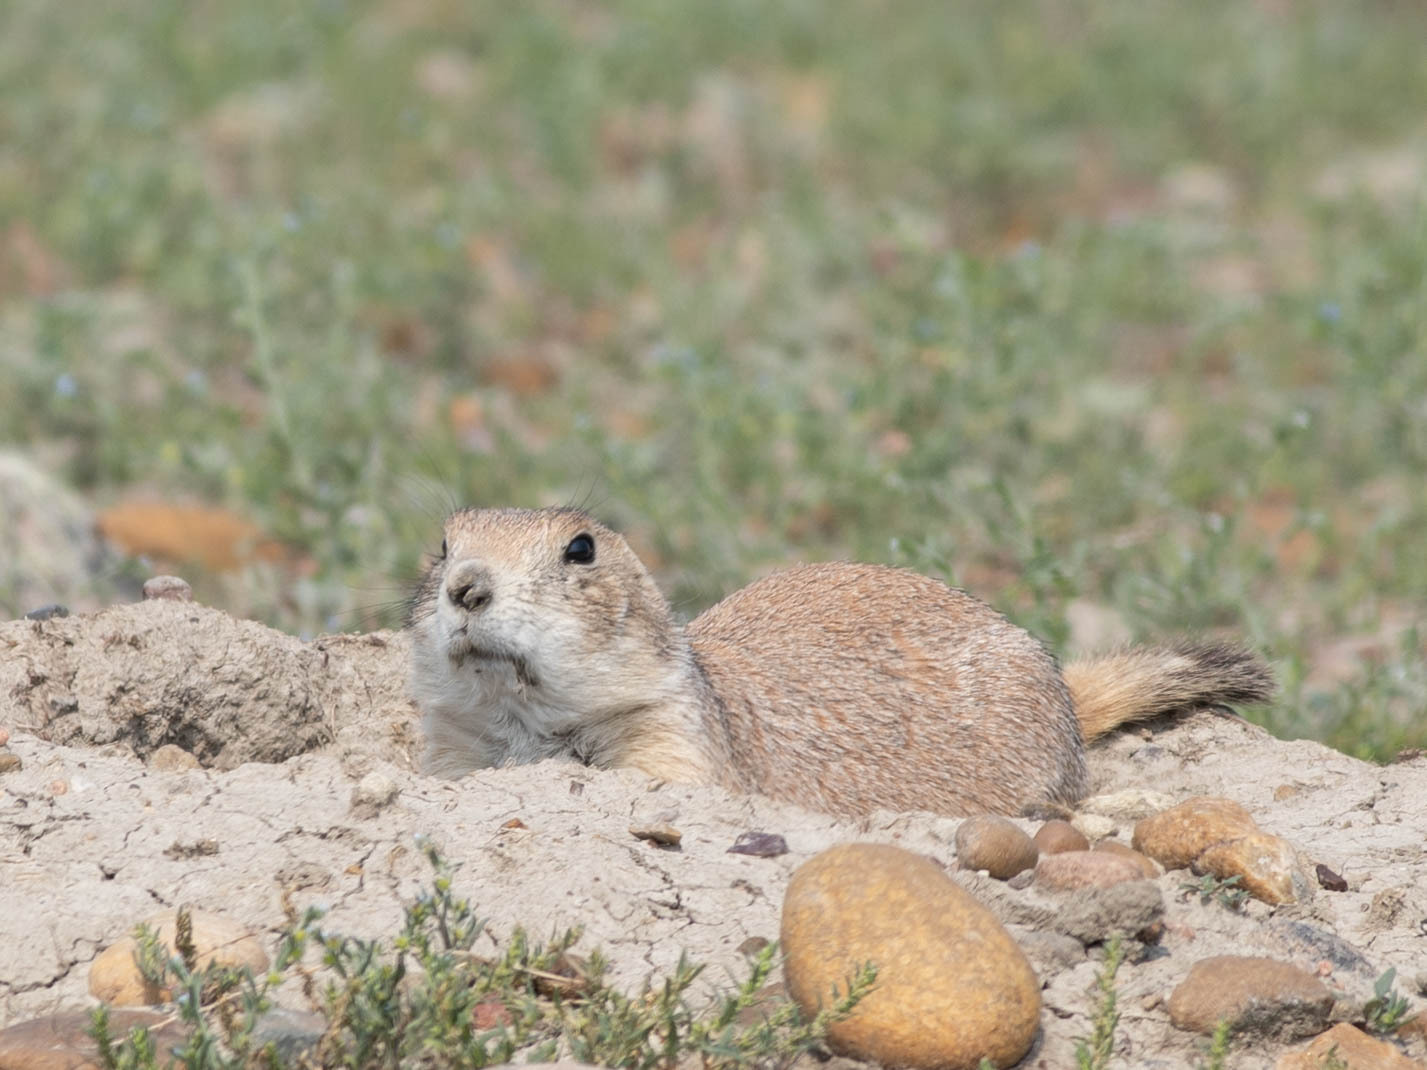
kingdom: Animalia
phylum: Chordata
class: Mammalia
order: Rodentia
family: Sciuridae
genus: Cynomys
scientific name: Cynomys ludovicianus
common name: Black-tailed prairie dog
